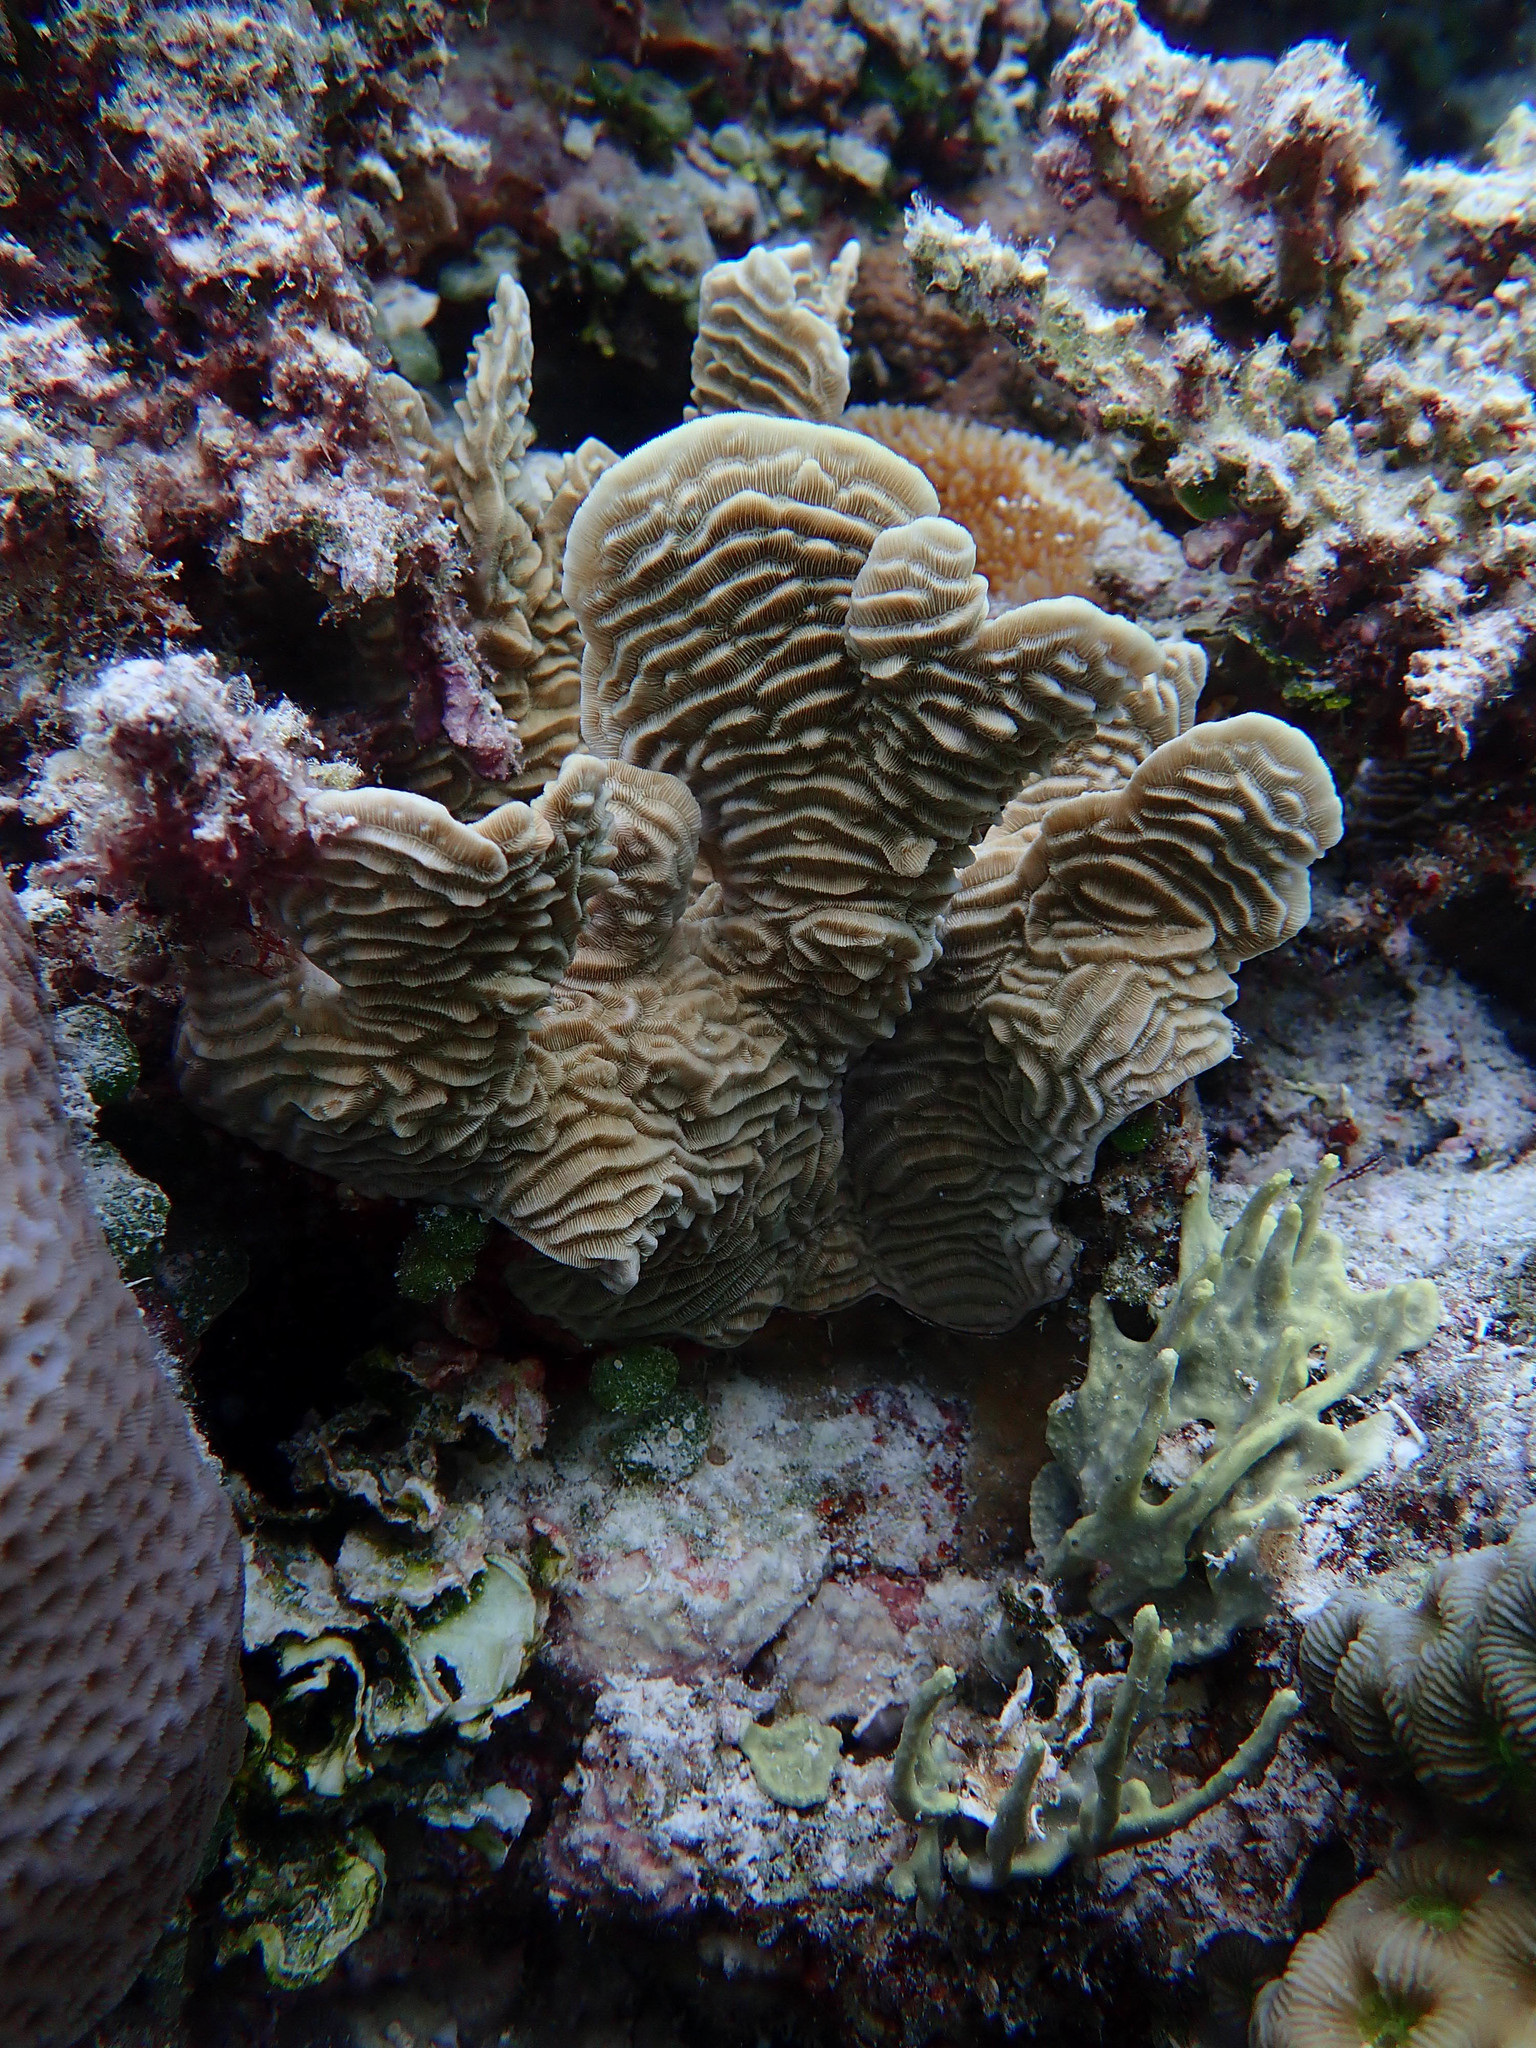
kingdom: Animalia
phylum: Cnidaria
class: Anthozoa
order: Scleractinia
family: Pachyseridae
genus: Pachyseris
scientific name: Pachyseris rugosa
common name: Serpent coral
